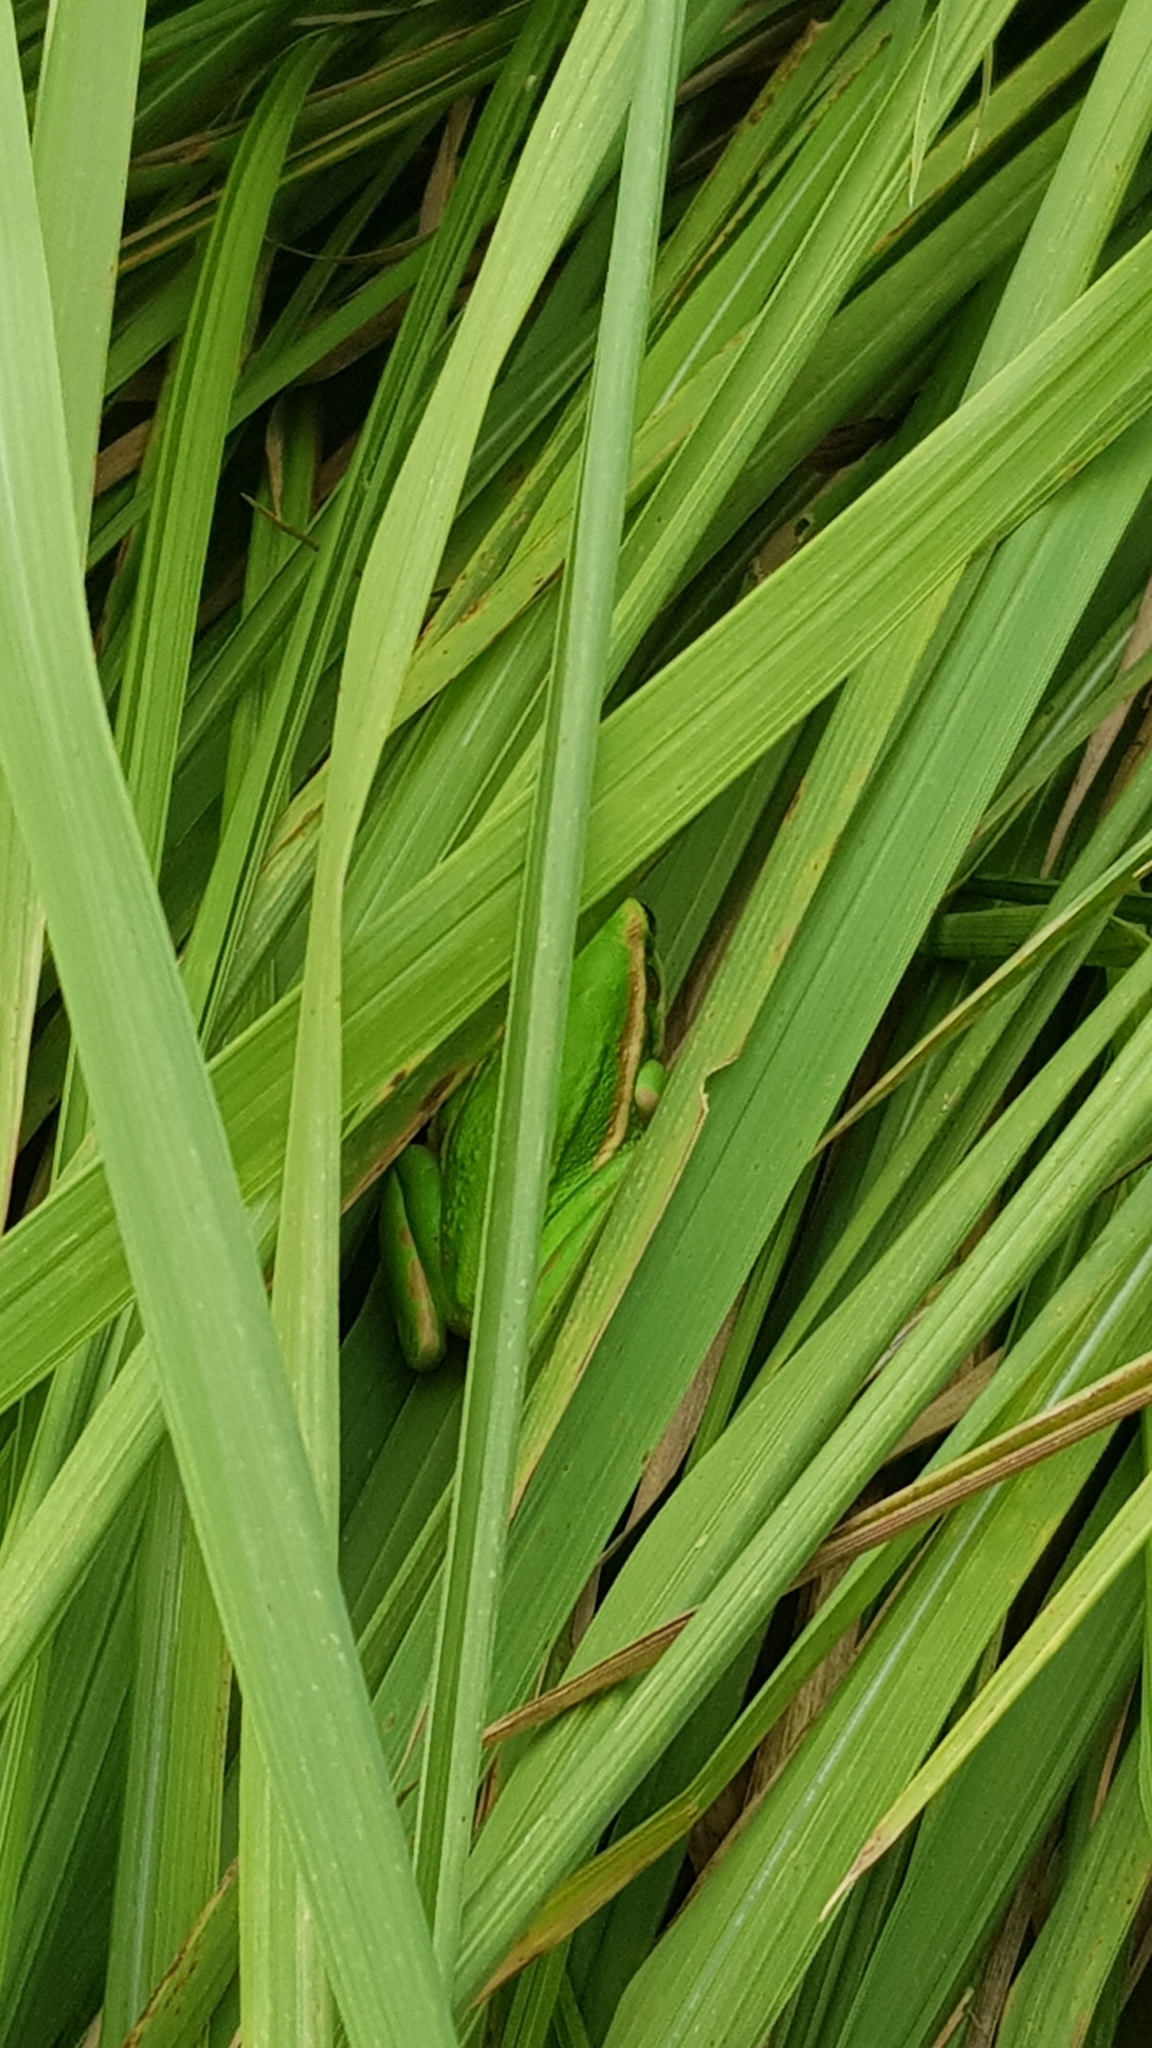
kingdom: Animalia
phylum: Chordata
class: Amphibia
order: Anura
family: Pelodryadidae
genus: Ranoidea
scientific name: Ranoidea aurea
